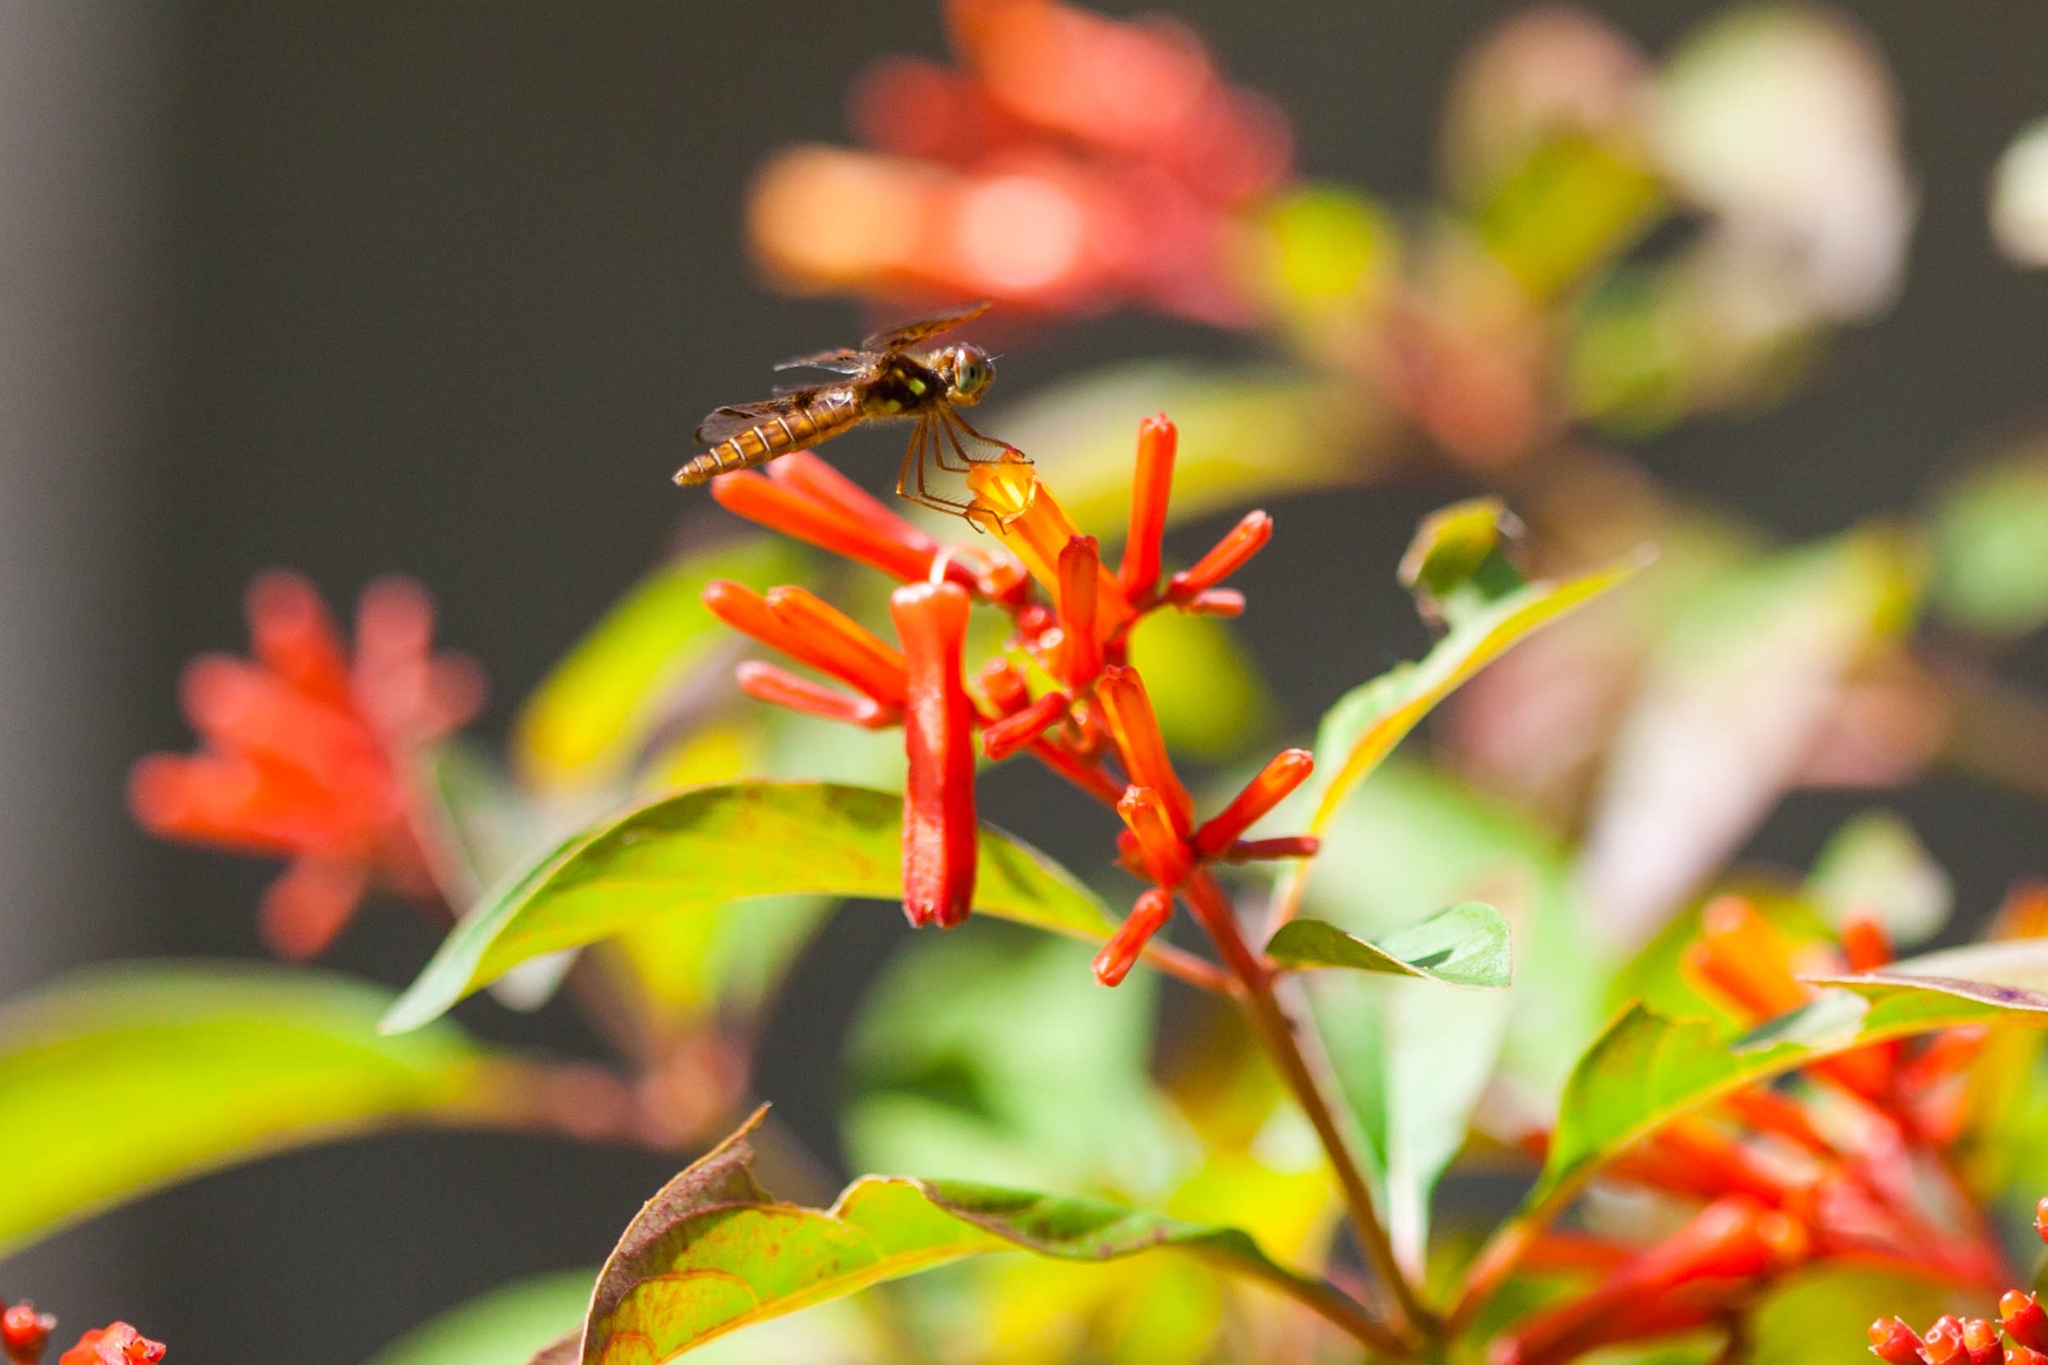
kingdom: Animalia
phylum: Arthropoda
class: Insecta
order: Odonata
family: Libellulidae
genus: Perithemis
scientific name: Perithemis tenera
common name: Eastern amberwing
